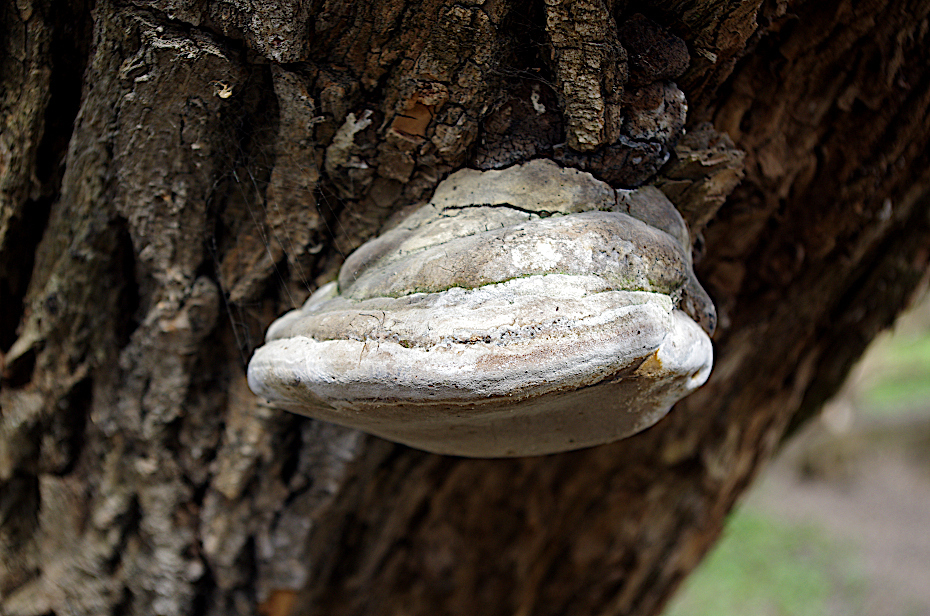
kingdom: Fungi
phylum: Basidiomycota
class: Agaricomycetes
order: Polyporales
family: Polyporaceae
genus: Fomes
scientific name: Fomes fomentarius
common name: Hoof fungus
